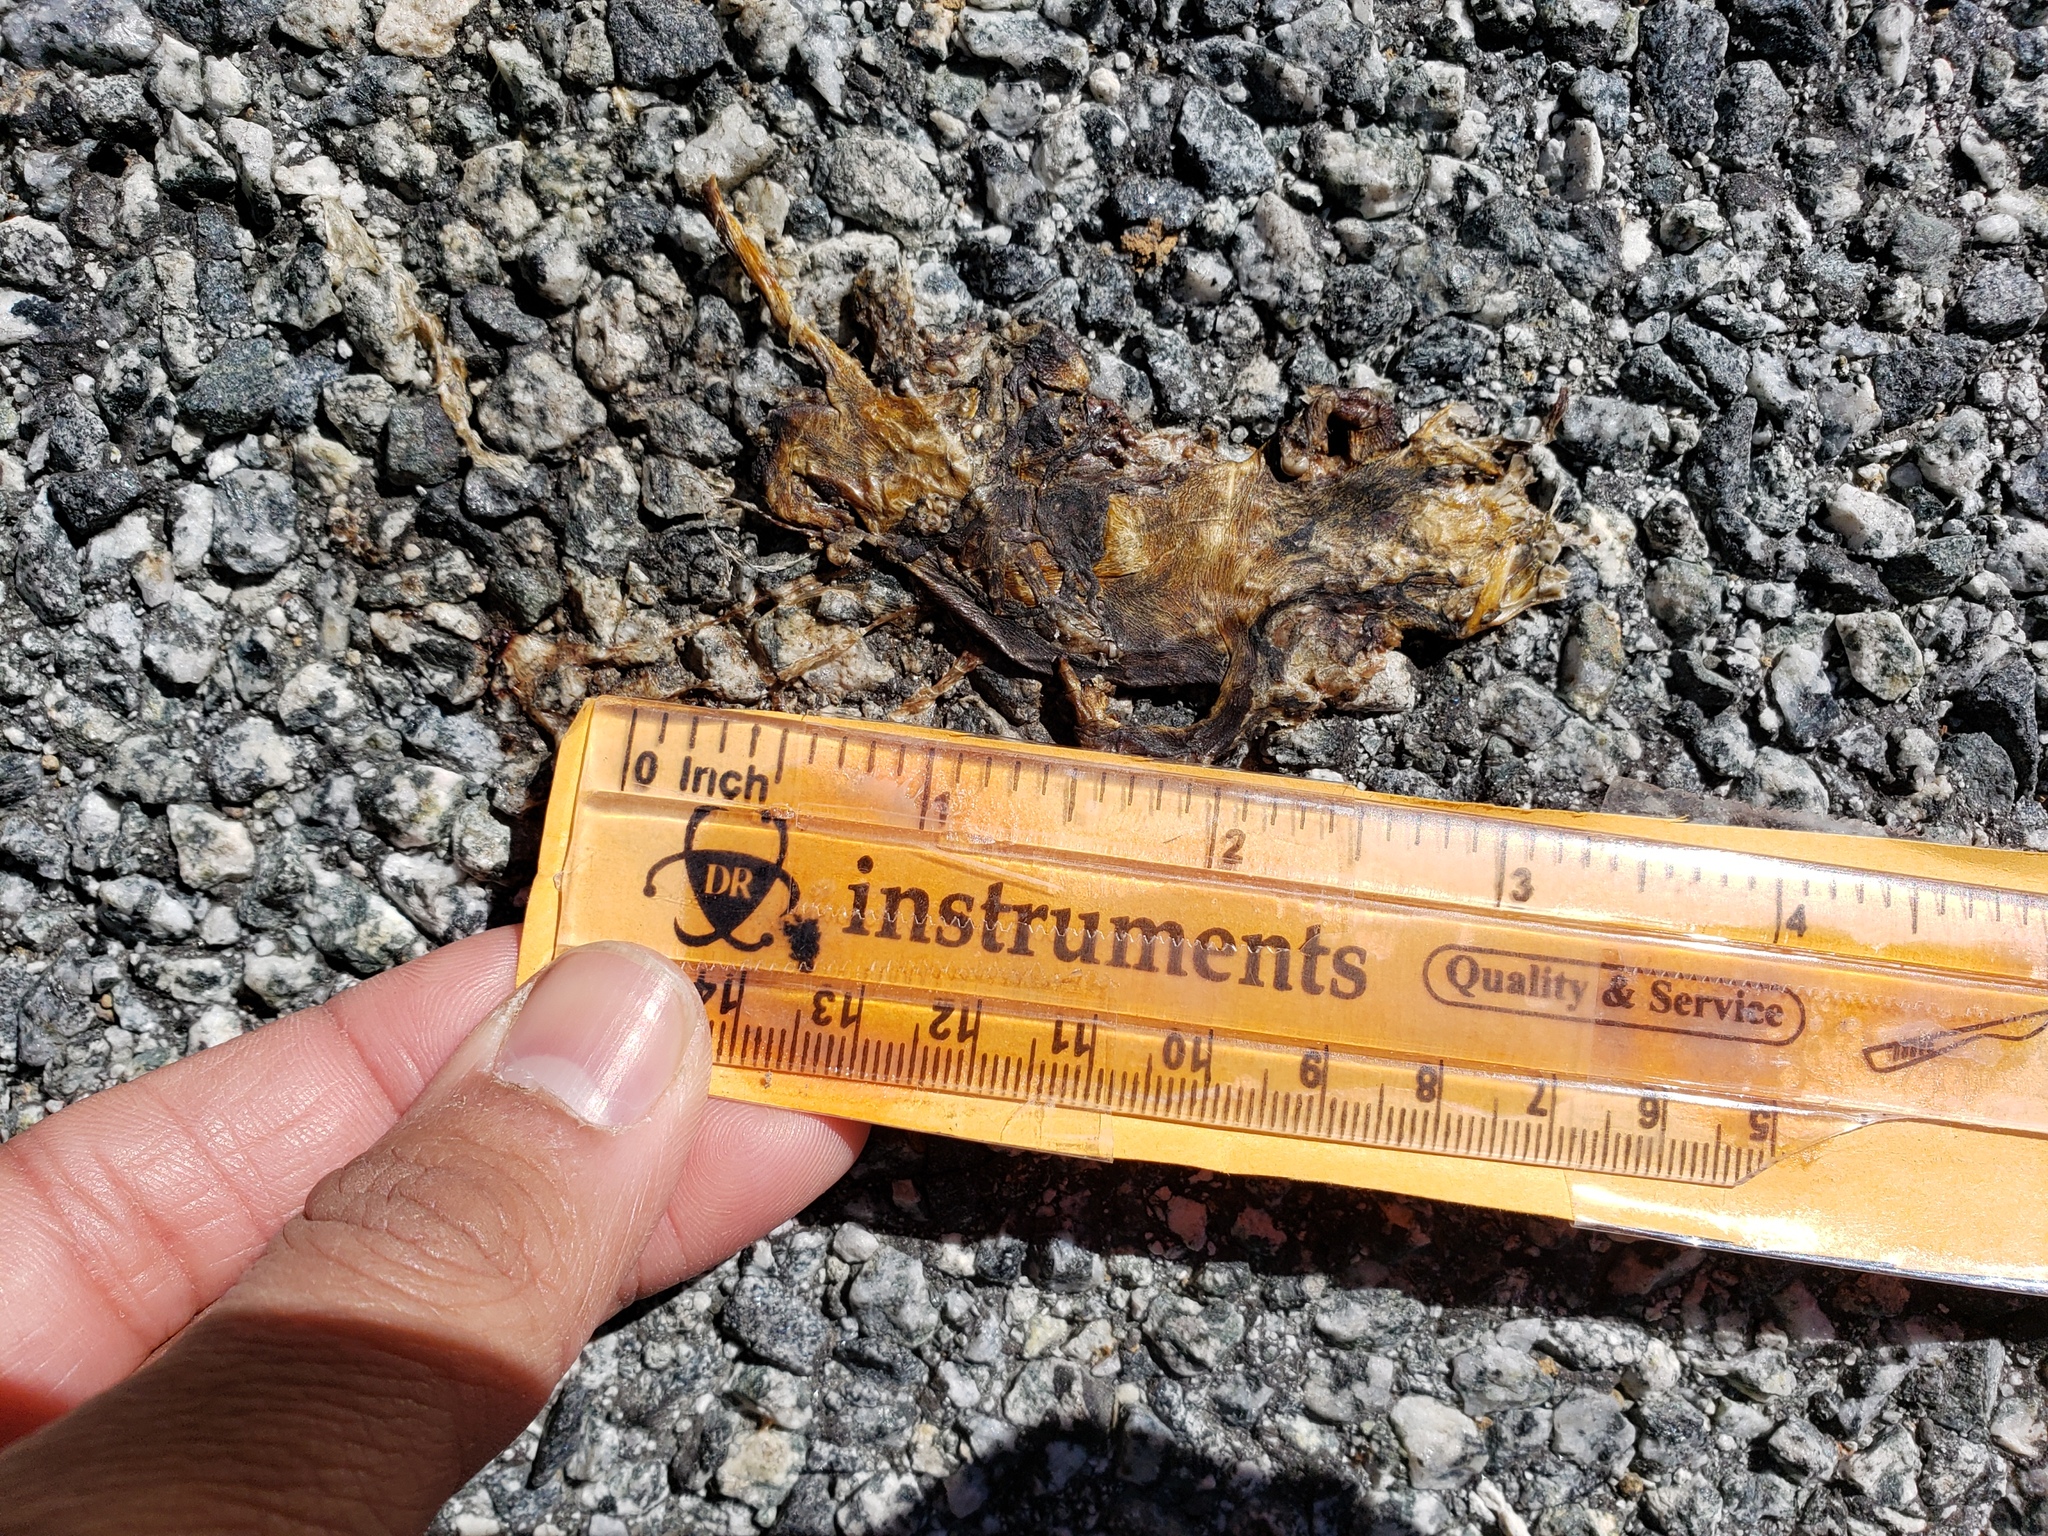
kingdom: Animalia
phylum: Chordata
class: Amphibia
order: Caudata
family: Salamandridae
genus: Taricha
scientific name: Taricha
